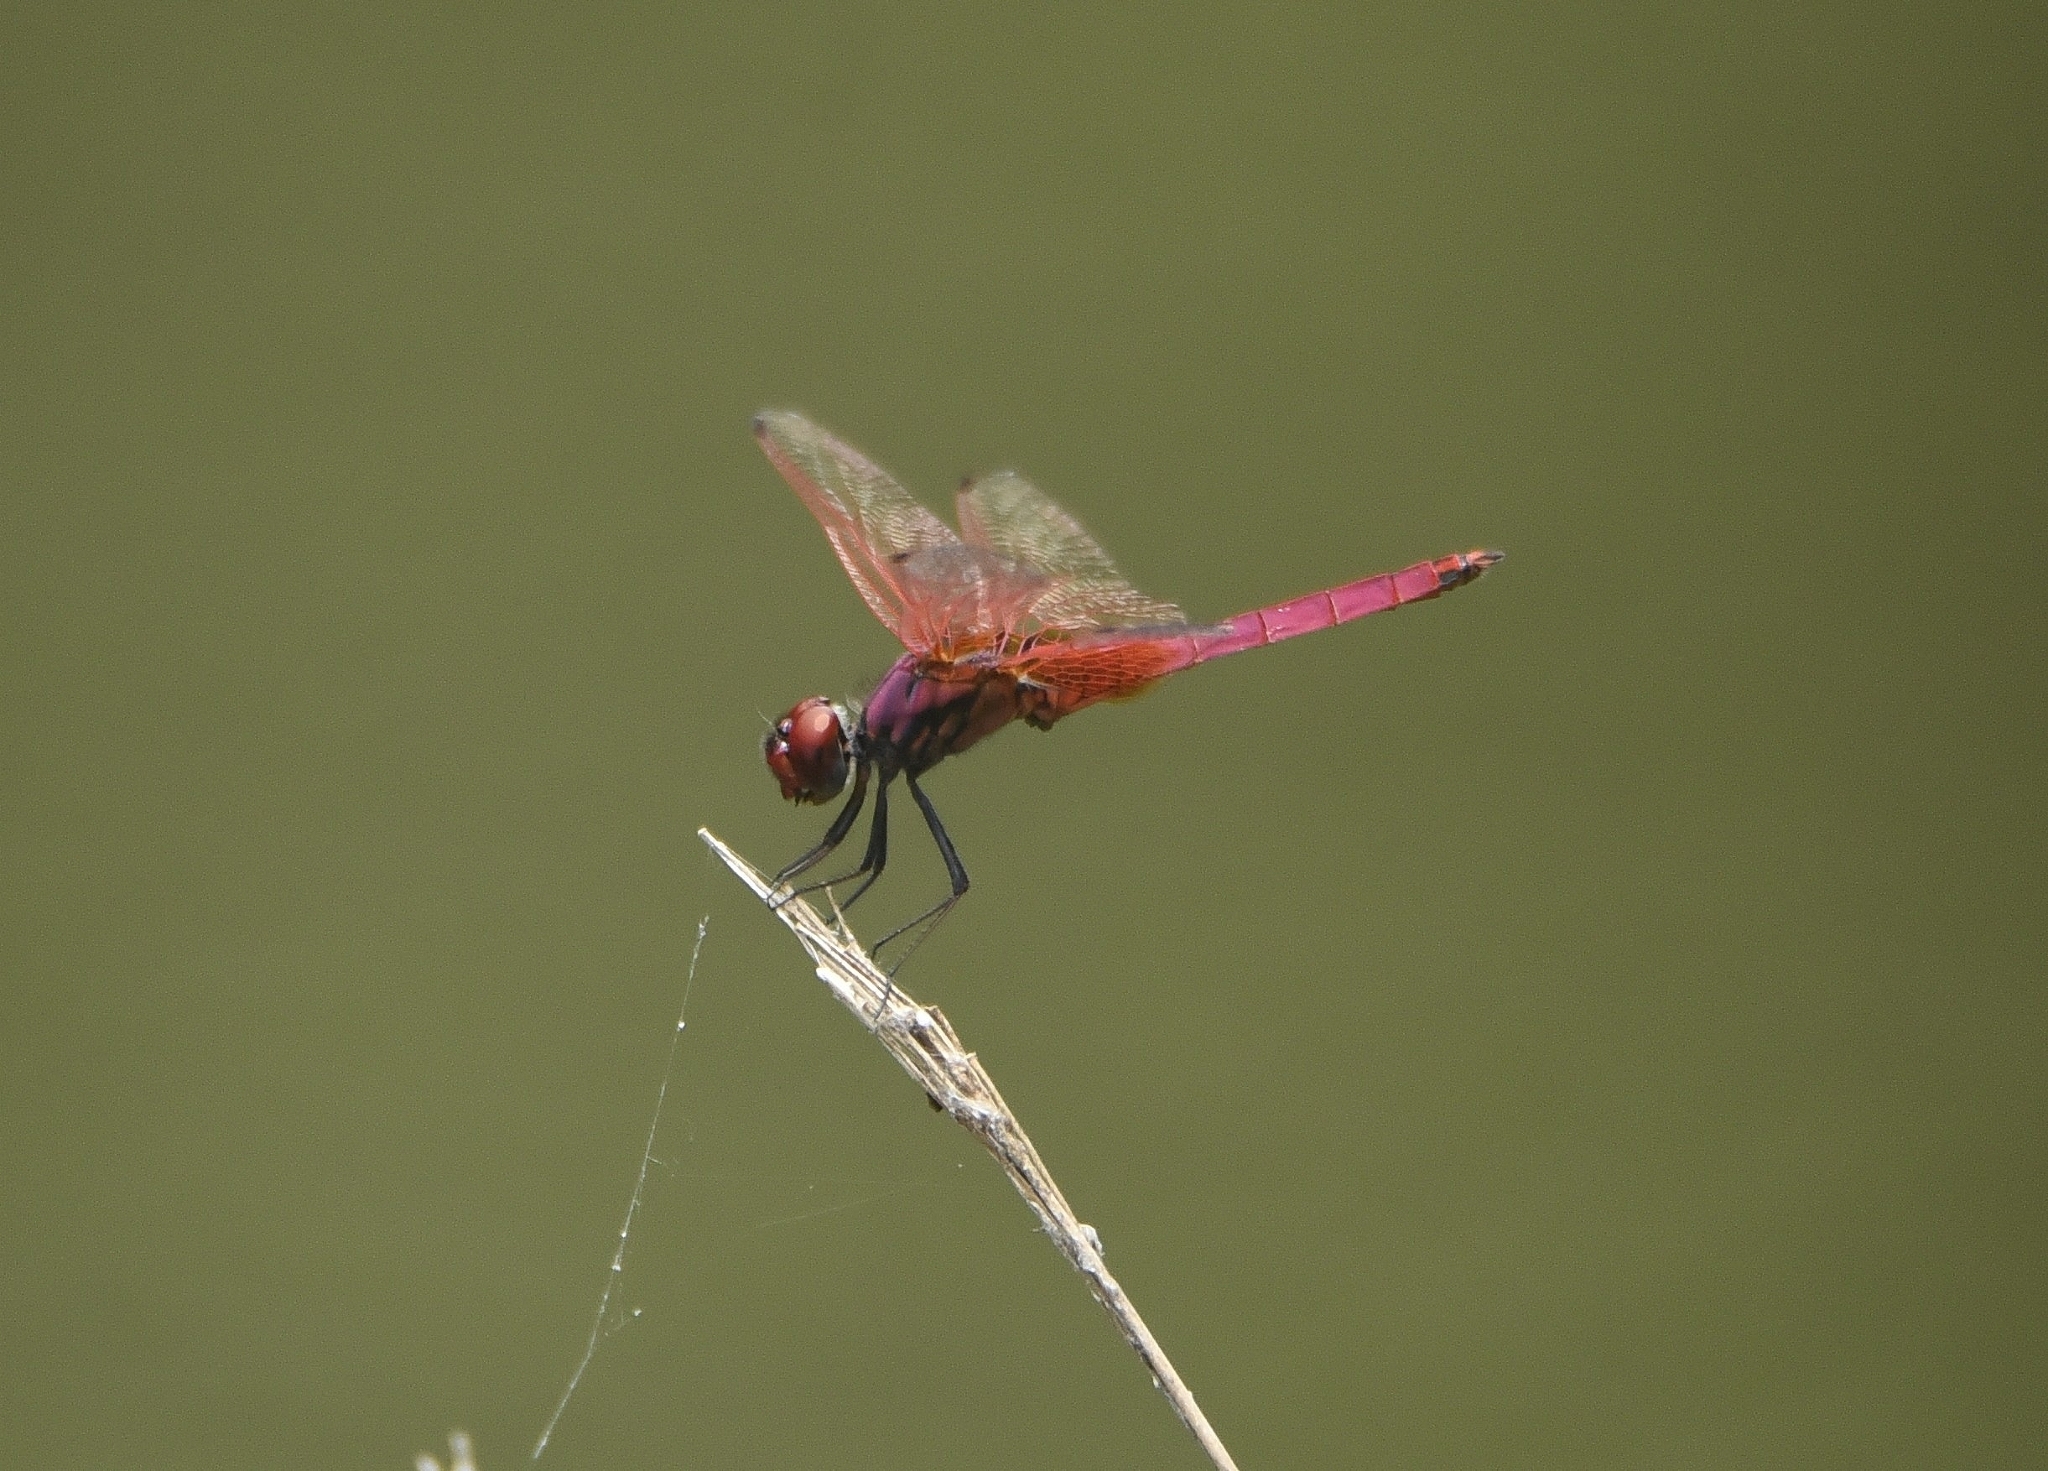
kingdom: Animalia
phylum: Arthropoda
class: Insecta
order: Odonata
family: Libellulidae
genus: Trithemis
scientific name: Trithemis aurora
